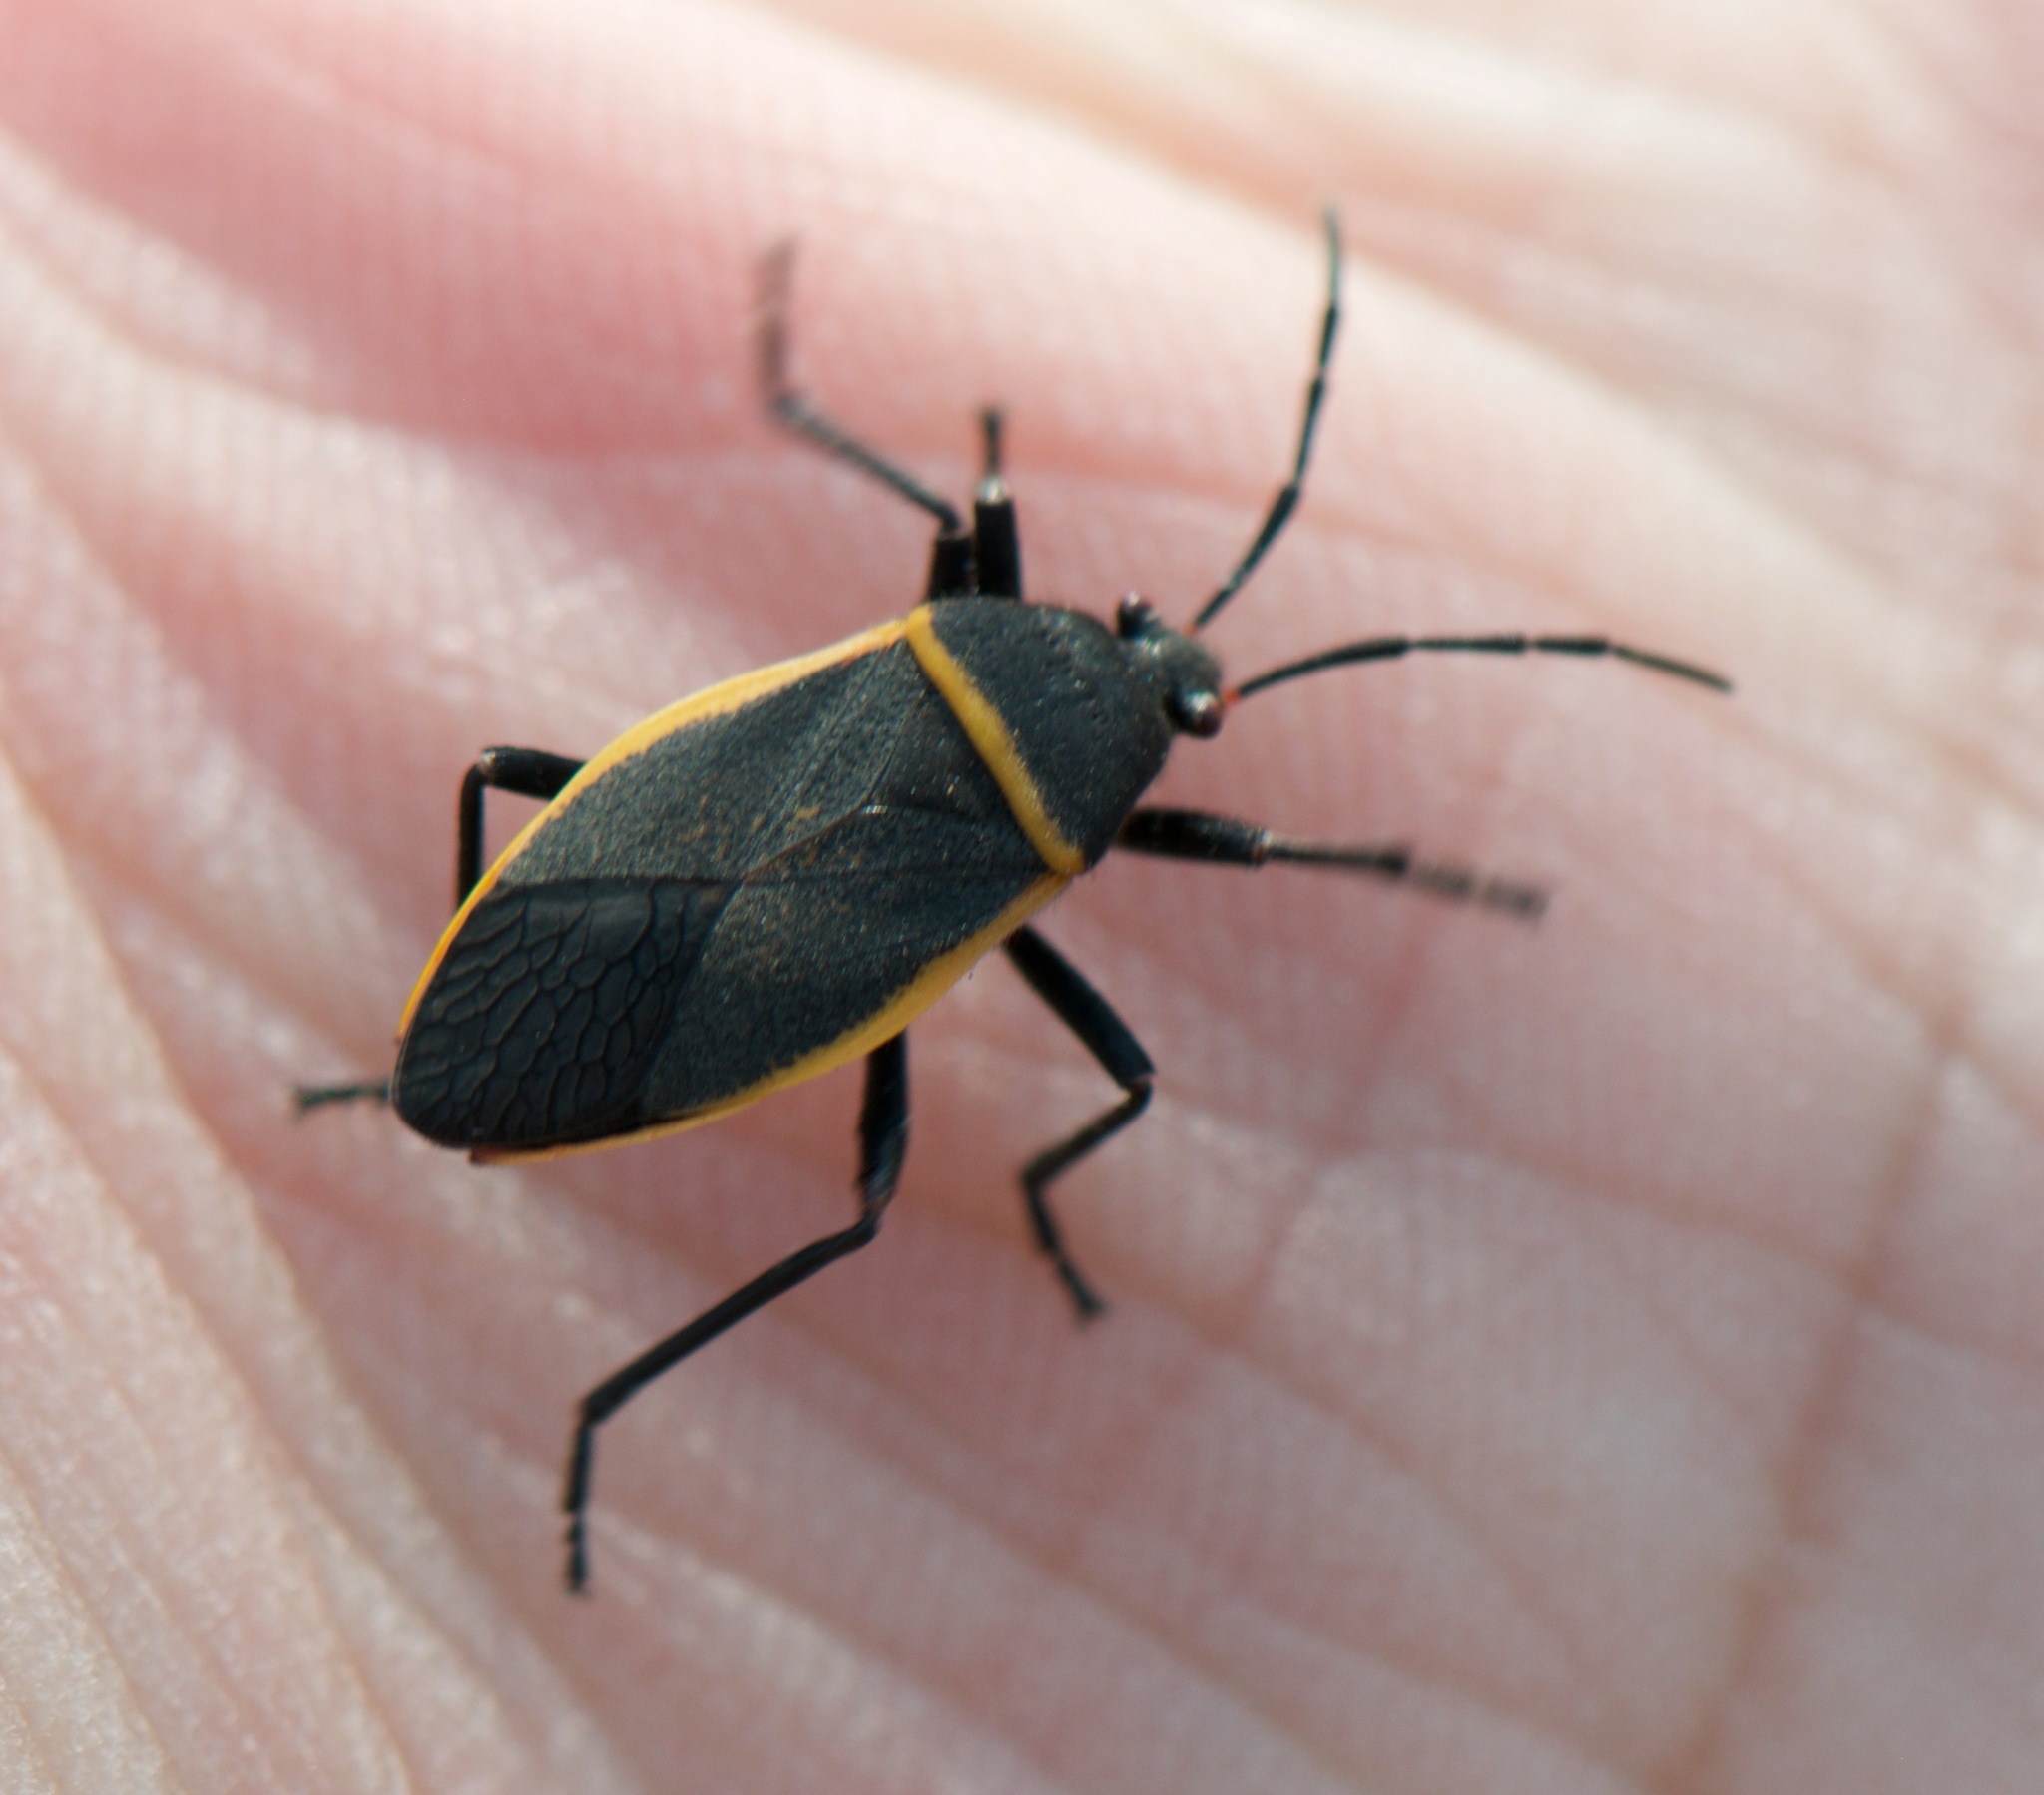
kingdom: Animalia
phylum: Arthropoda
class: Insecta
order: Hemiptera
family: Largidae
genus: Largus
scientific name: Largus californicus
